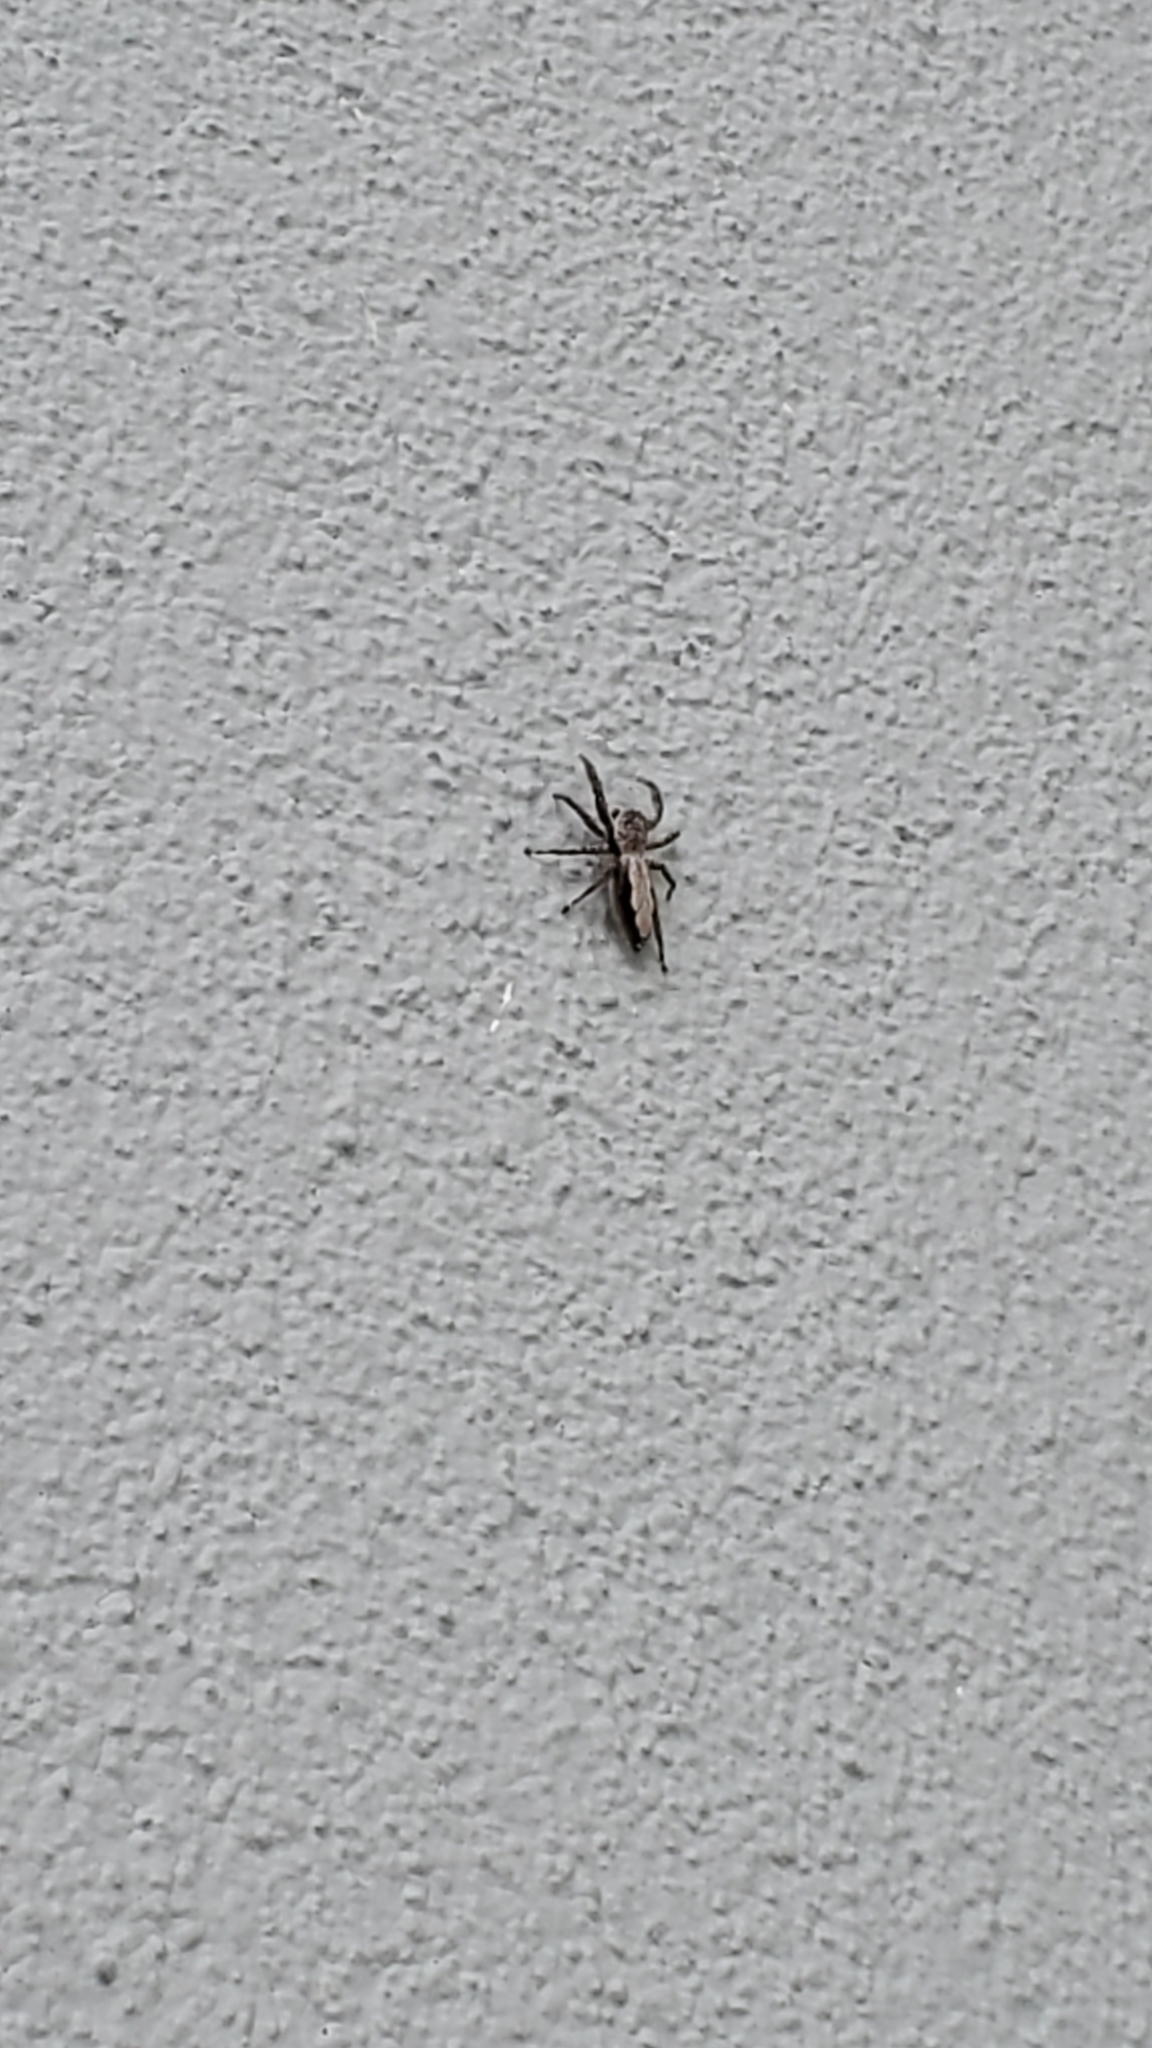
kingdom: Animalia
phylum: Arthropoda
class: Arachnida
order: Araneae
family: Salticidae
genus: Platycryptus
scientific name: Platycryptus undatus
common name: Tan jumping spider
